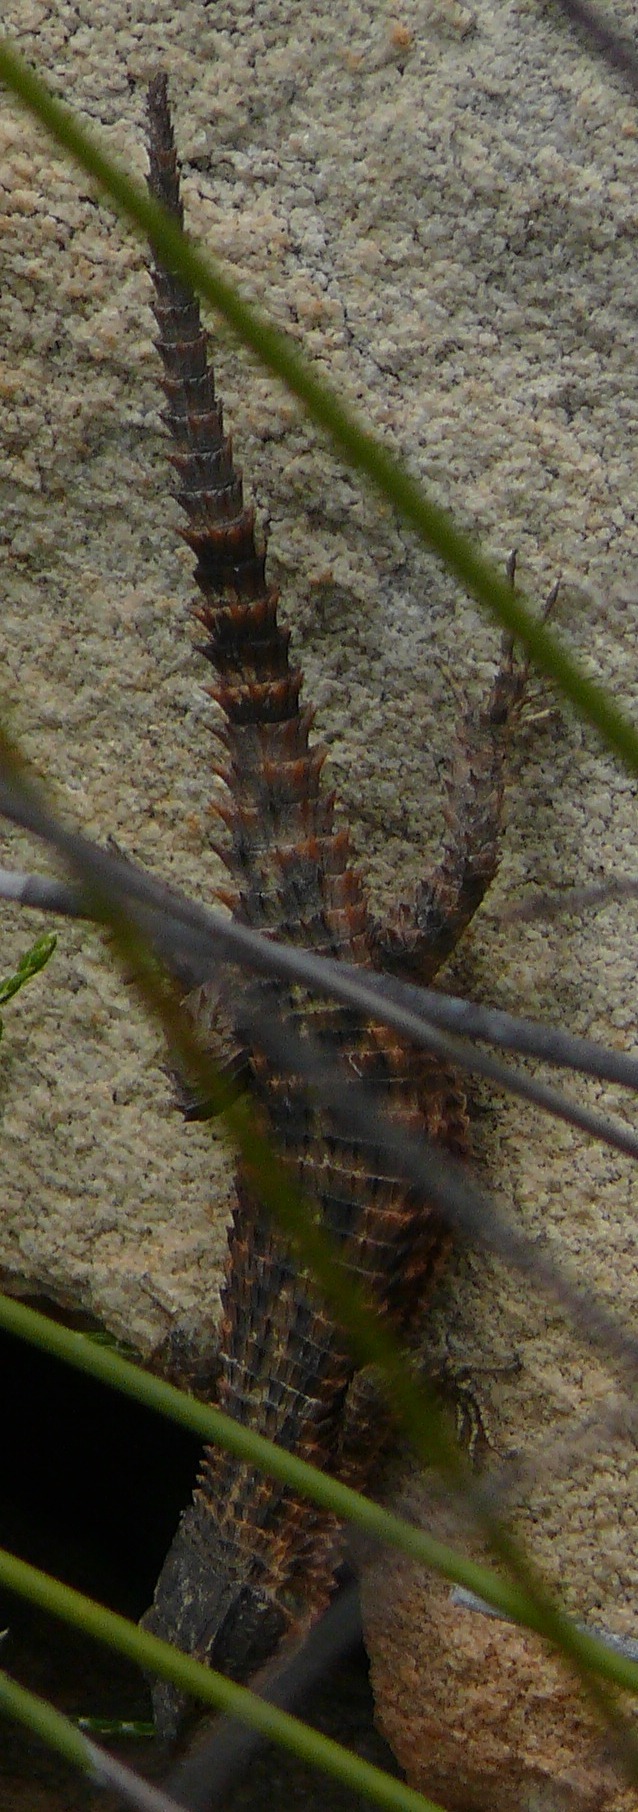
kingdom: Animalia
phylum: Chordata
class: Squamata
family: Cordylidae
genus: Cordylus
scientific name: Cordylus cordylus
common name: Cape girdled lizard
